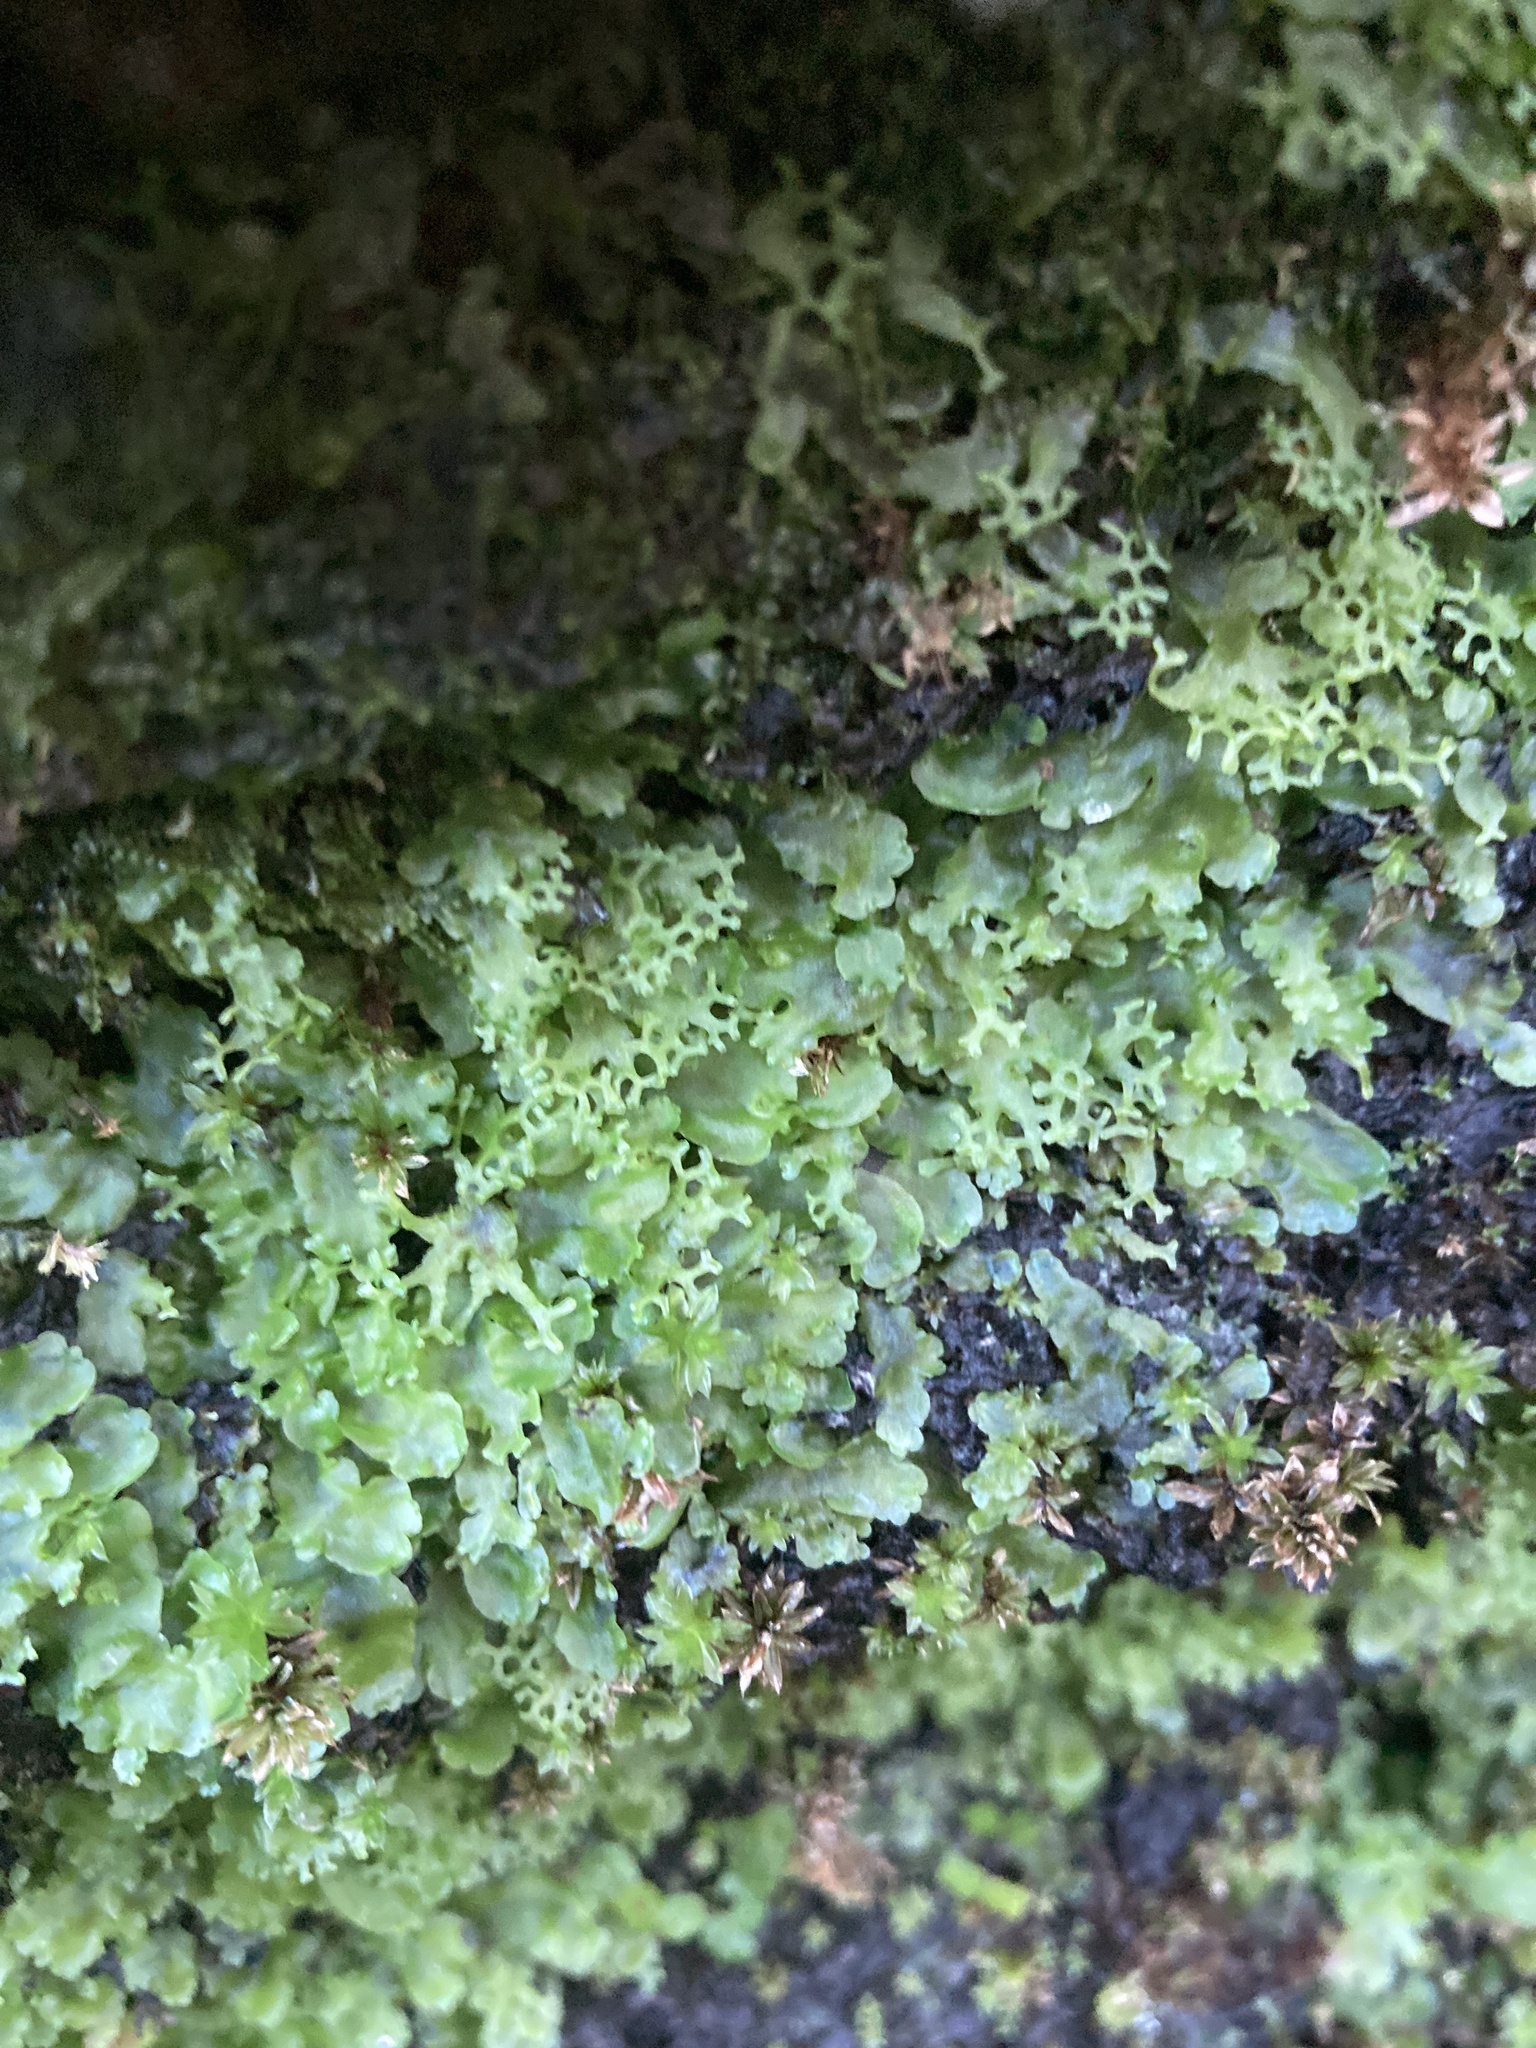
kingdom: Plantae
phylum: Marchantiophyta
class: Jungermanniopsida
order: Pelliales
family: Pelliaceae
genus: Apopellia
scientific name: Apopellia endiviifolia
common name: Endive pellia
